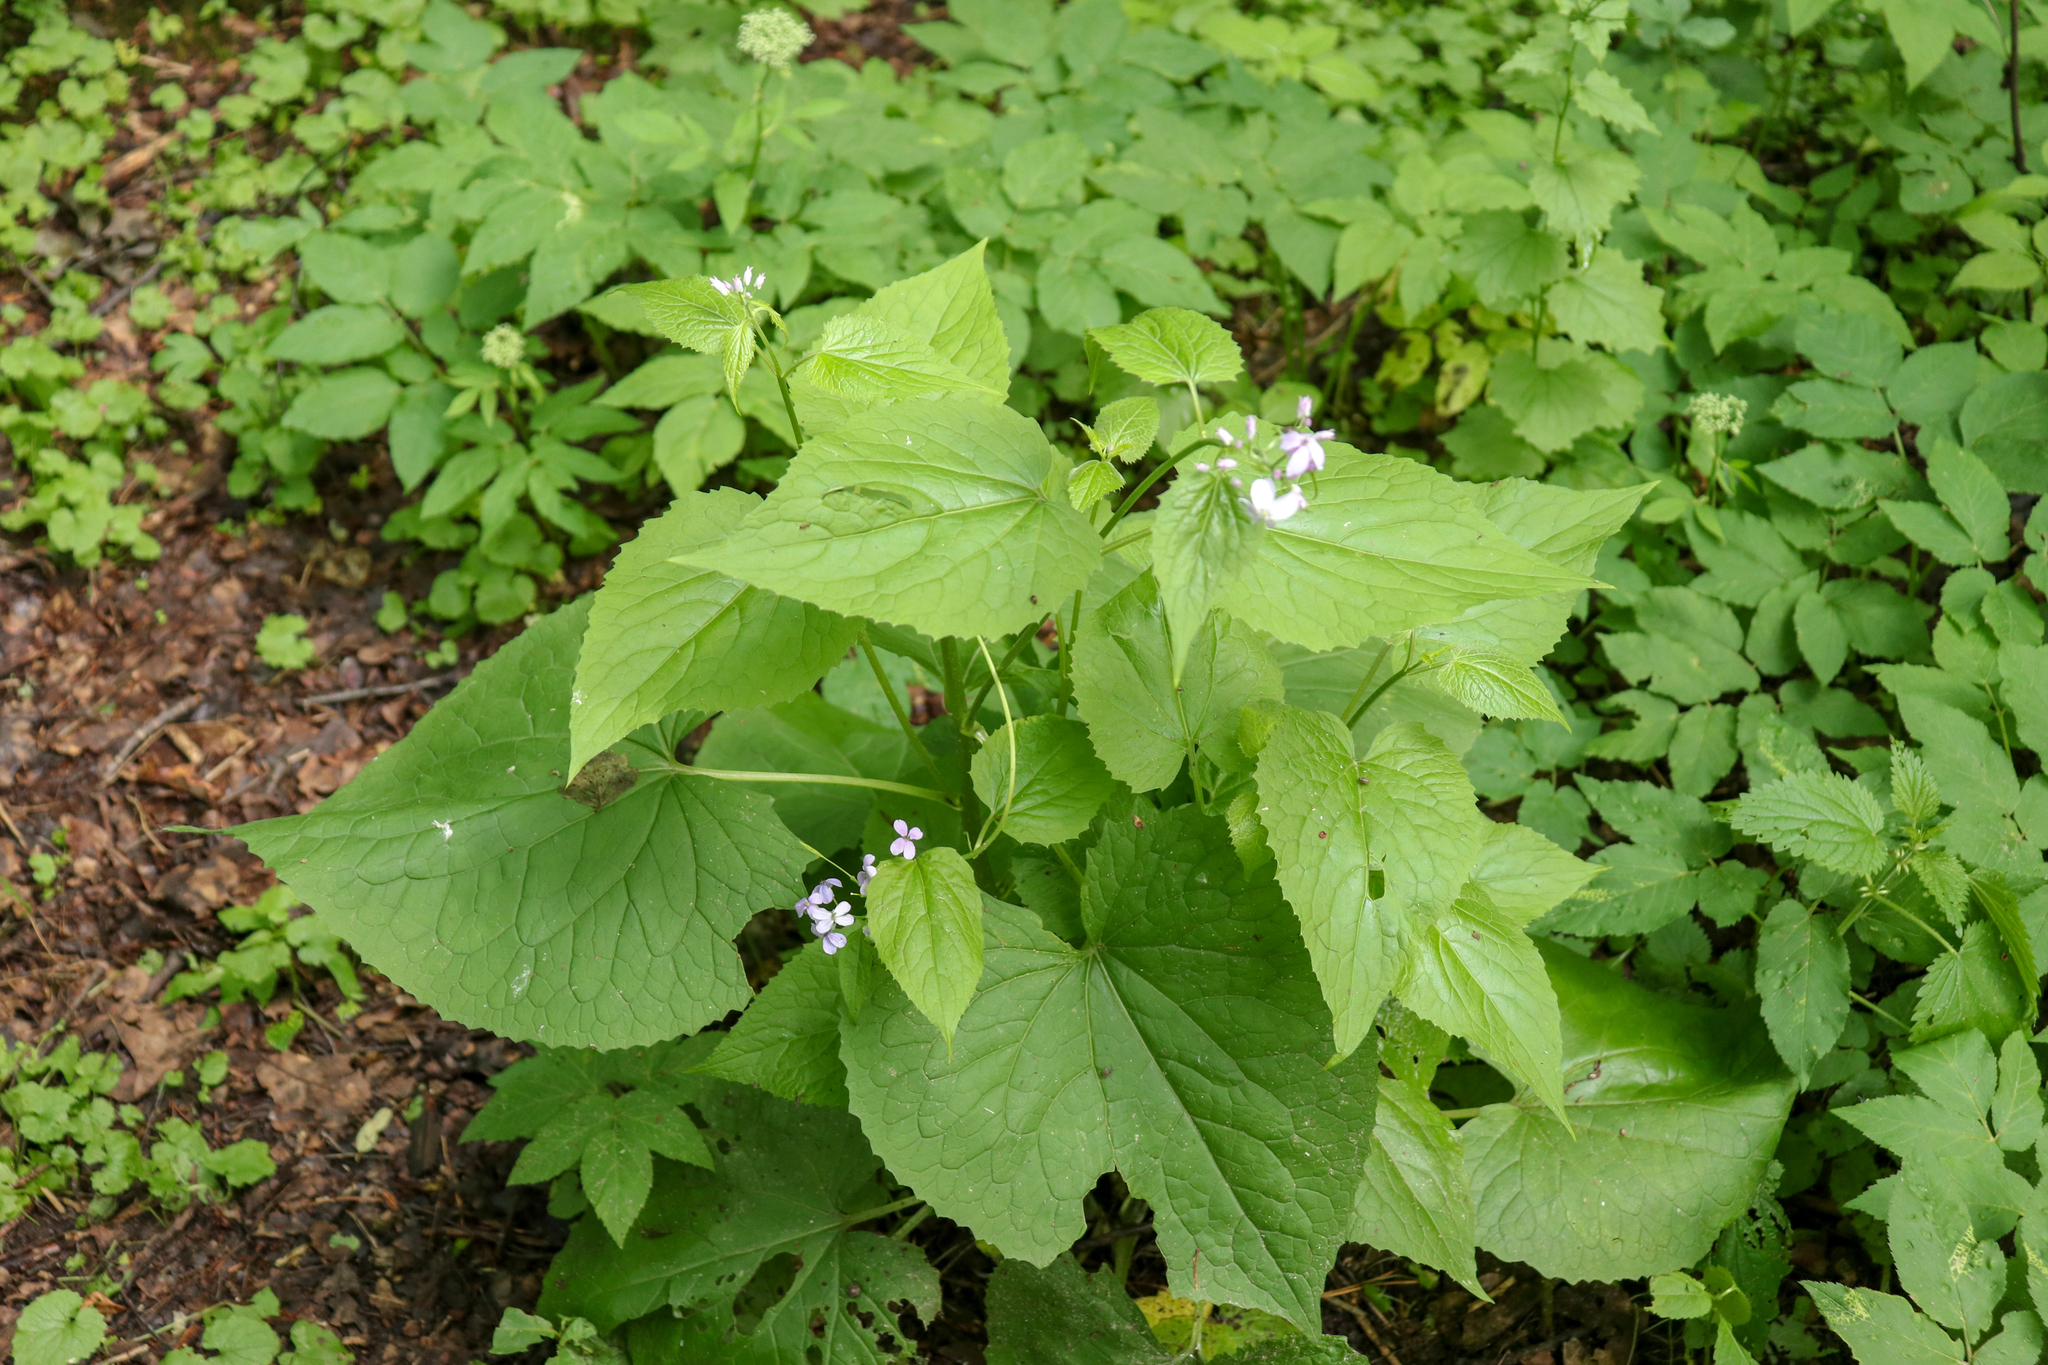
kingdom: Plantae
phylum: Tracheophyta
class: Magnoliopsida
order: Brassicales
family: Brassicaceae
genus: Lunaria
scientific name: Lunaria rediviva
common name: Perennial honesty
